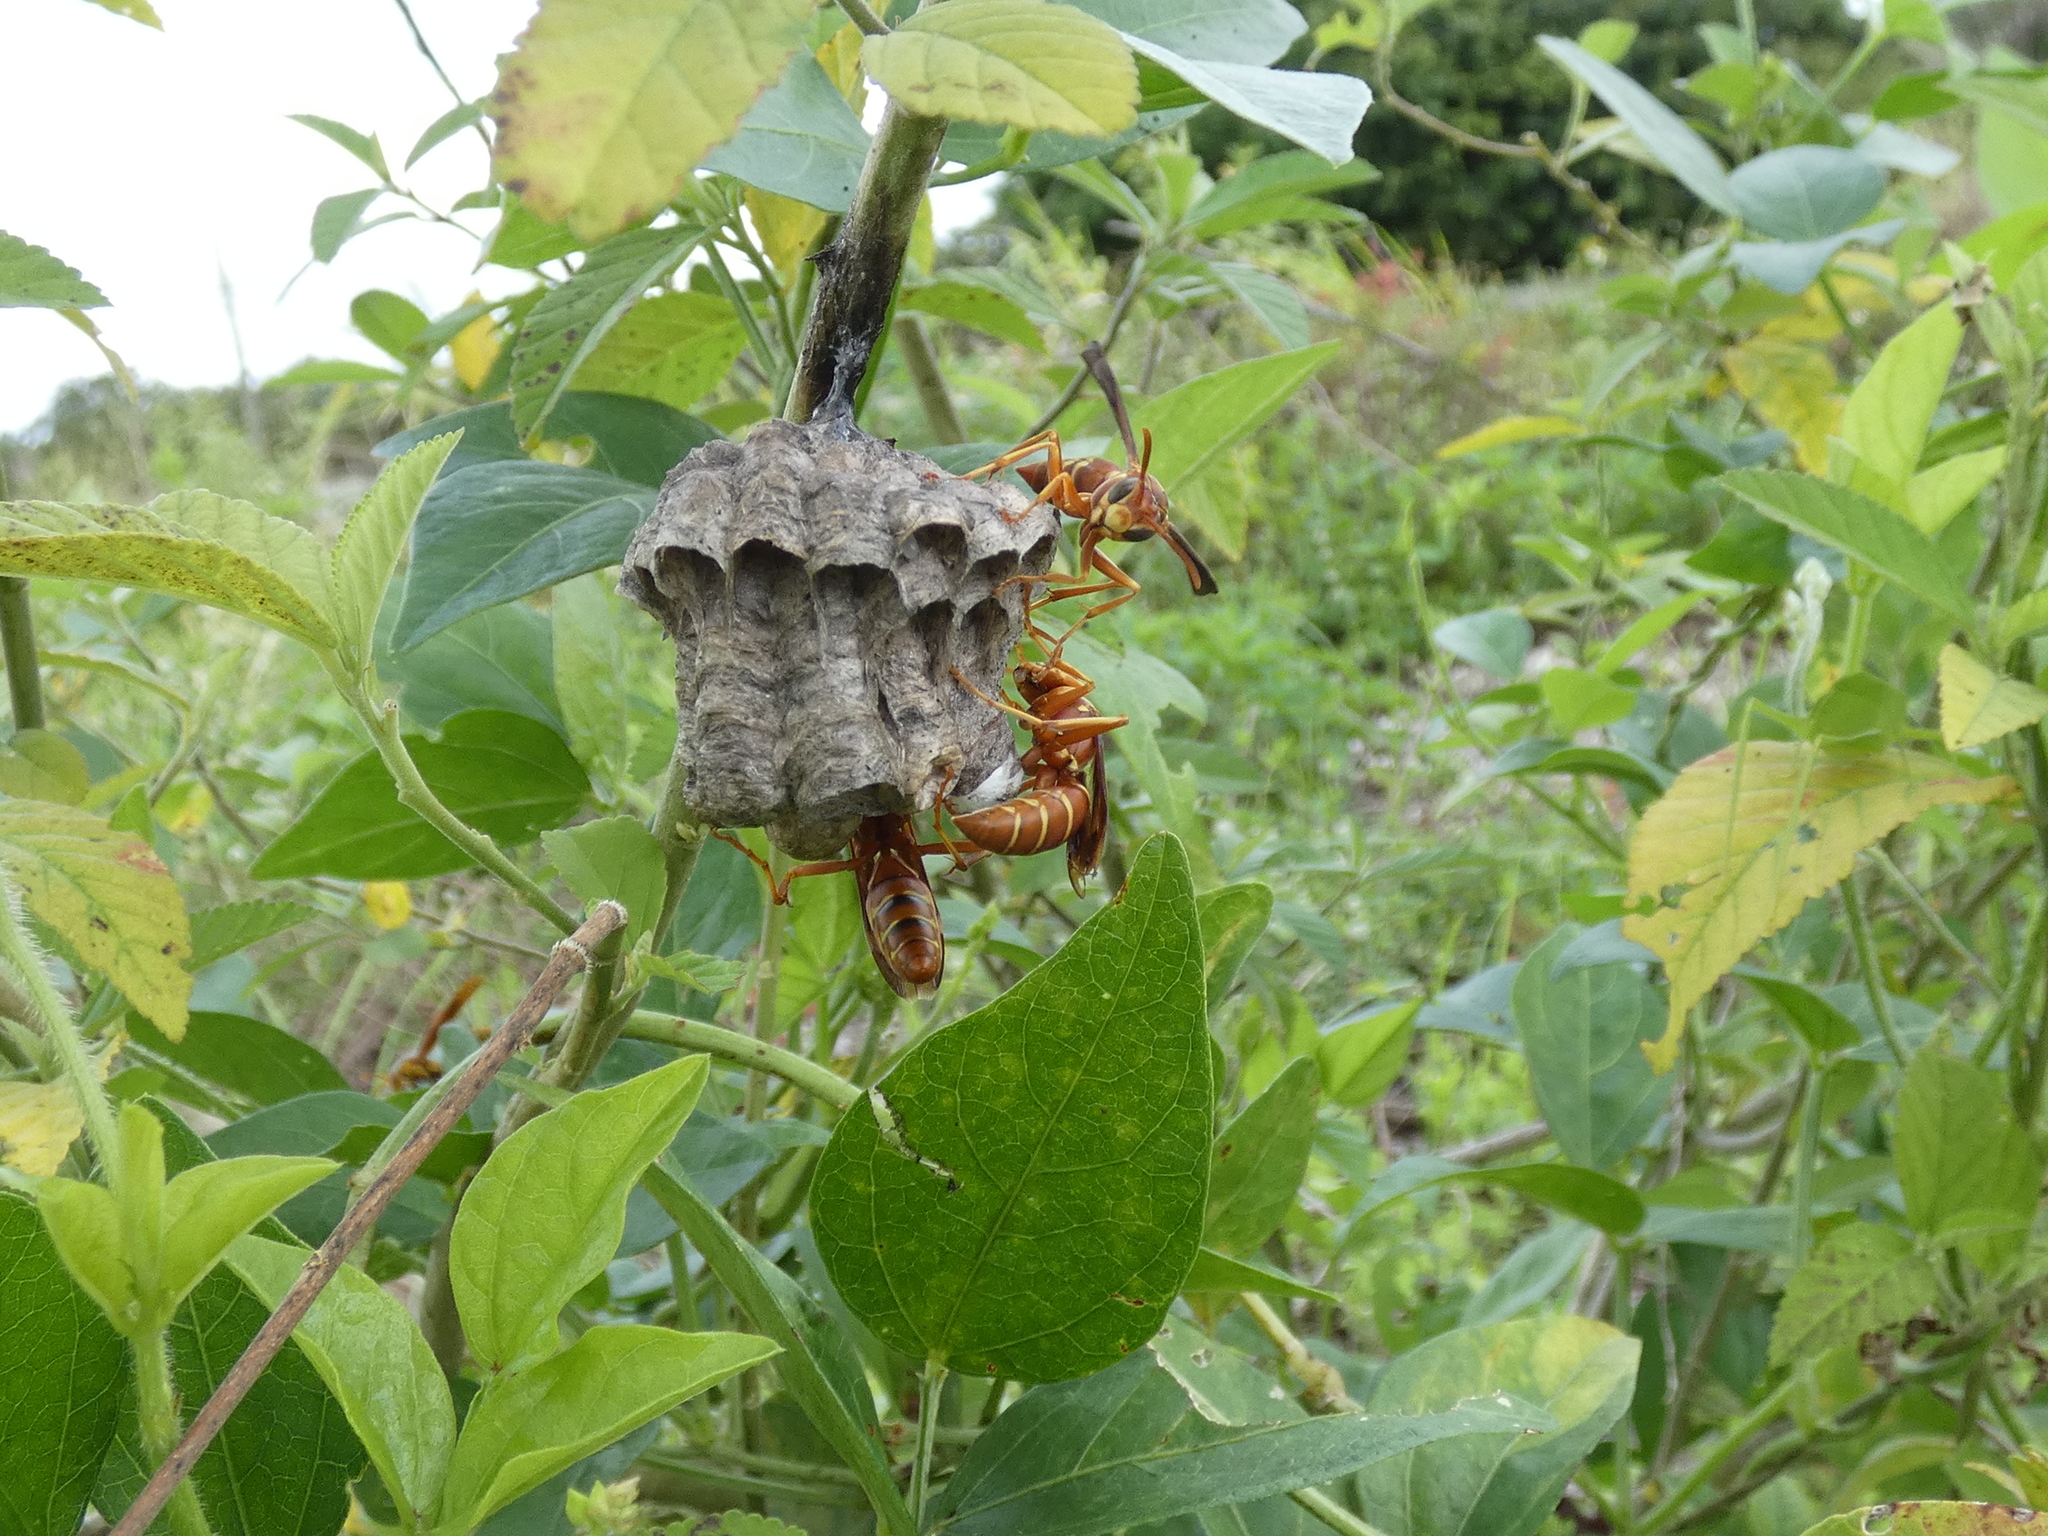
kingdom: Animalia
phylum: Arthropoda
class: Insecta
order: Hymenoptera
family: Eumenidae
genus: Polistes
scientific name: Polistes bellicosus
